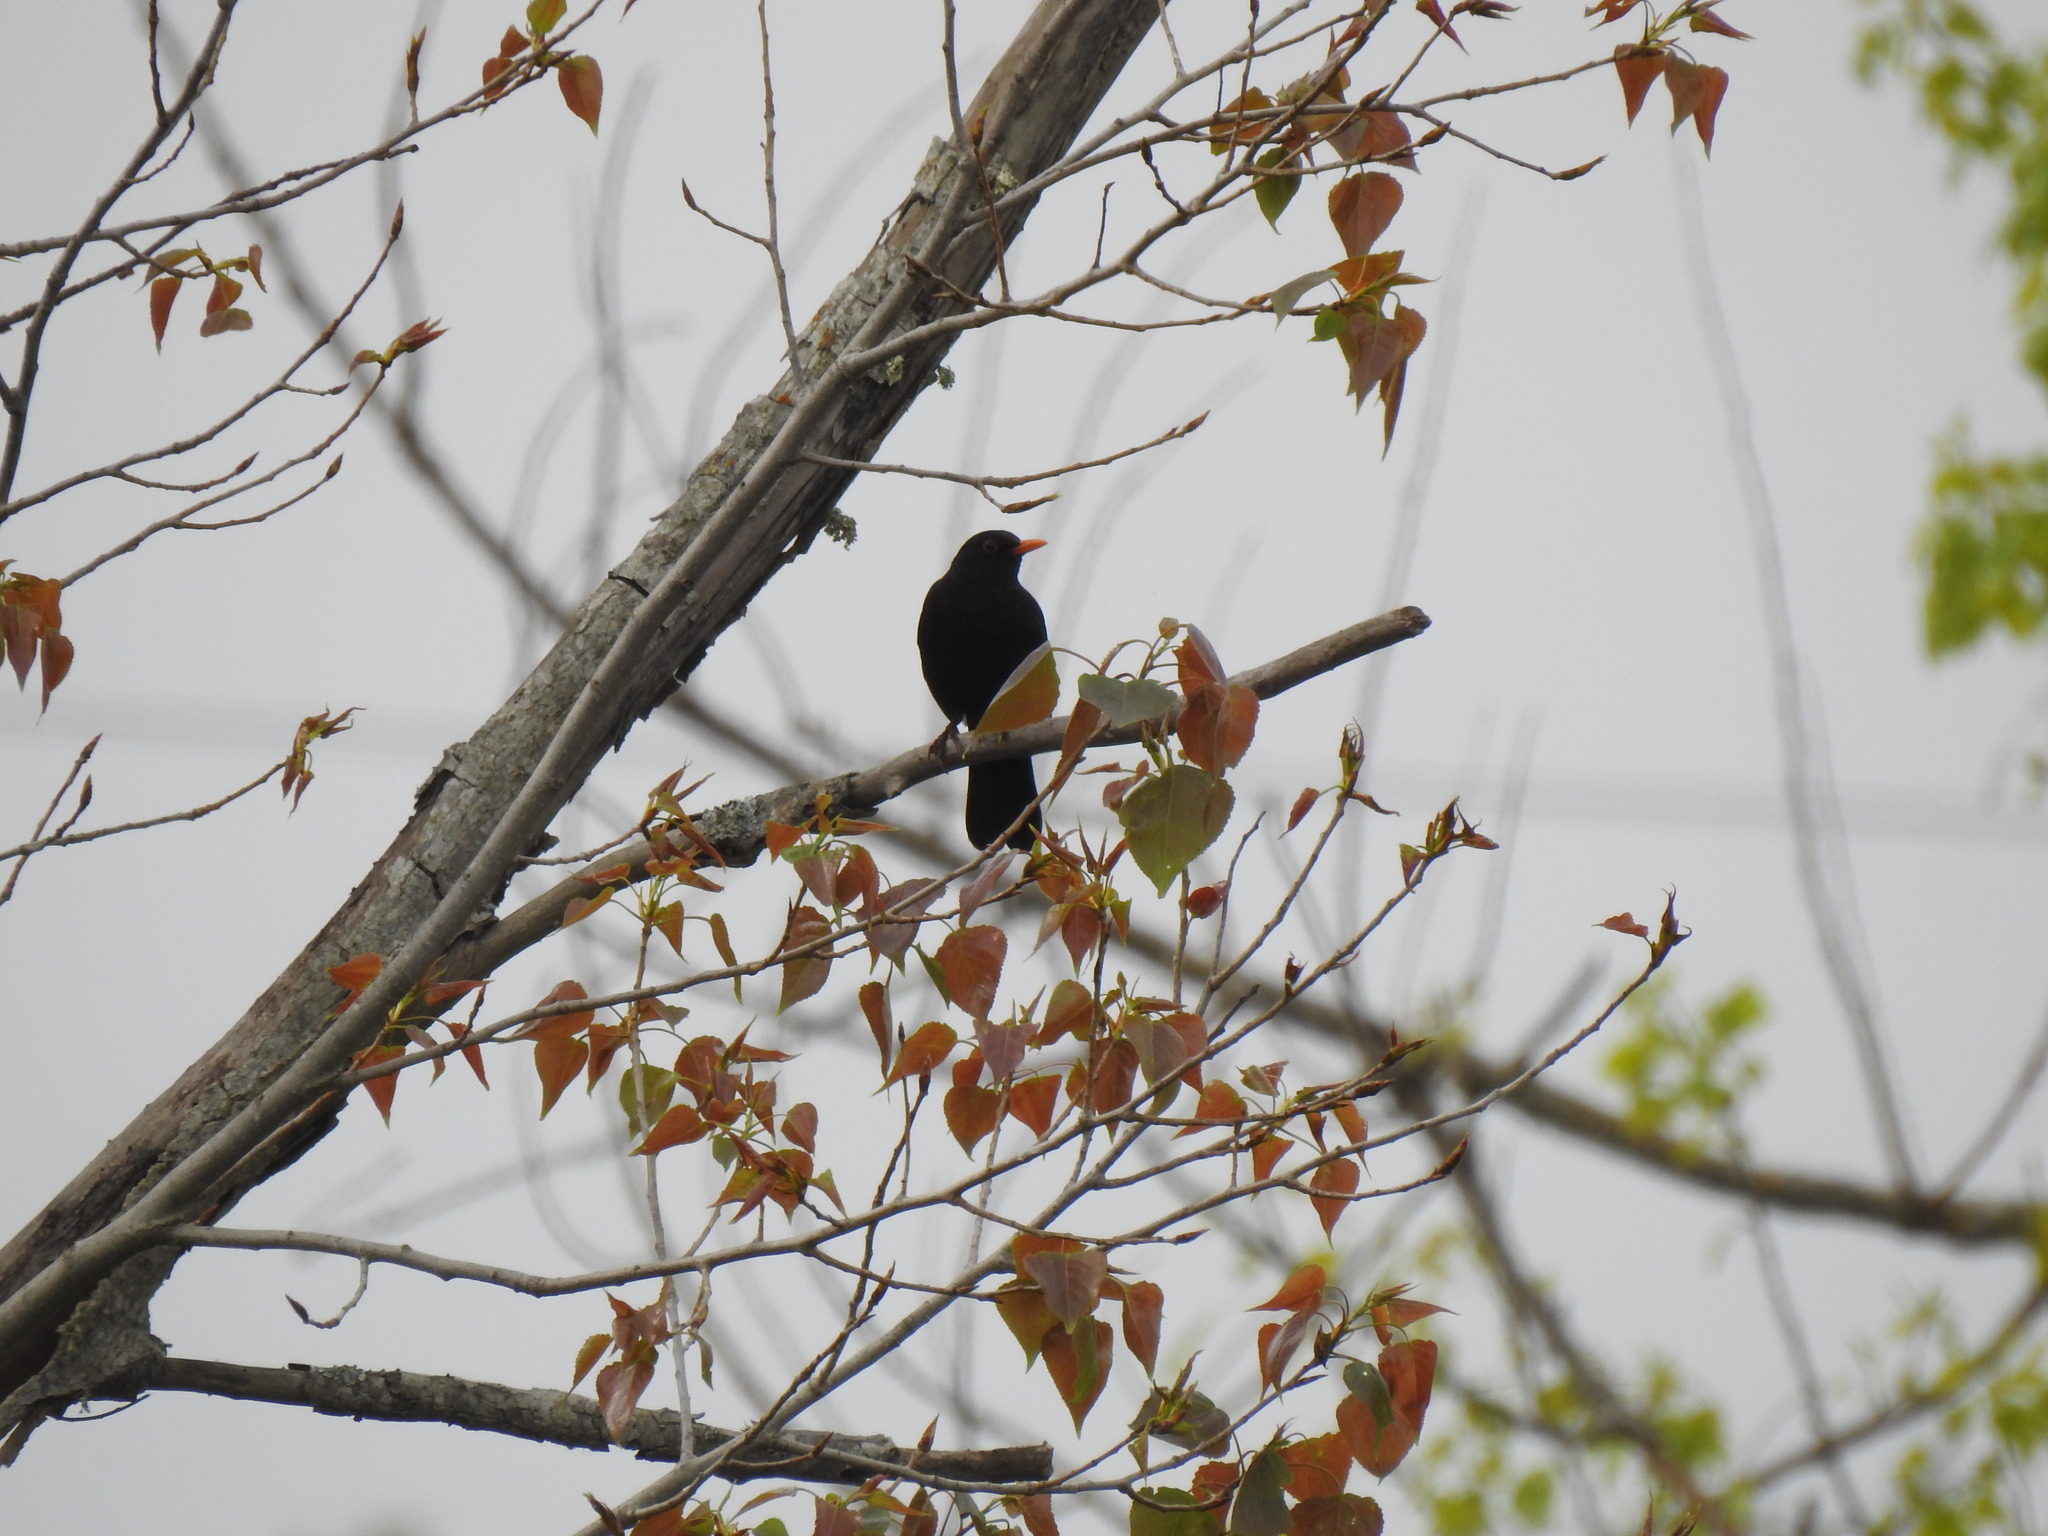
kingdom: Animalia
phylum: Chordata
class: Aves
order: Passeriformes
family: Turdidae
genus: Turdus
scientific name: Turdus merula
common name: Common blackbird
